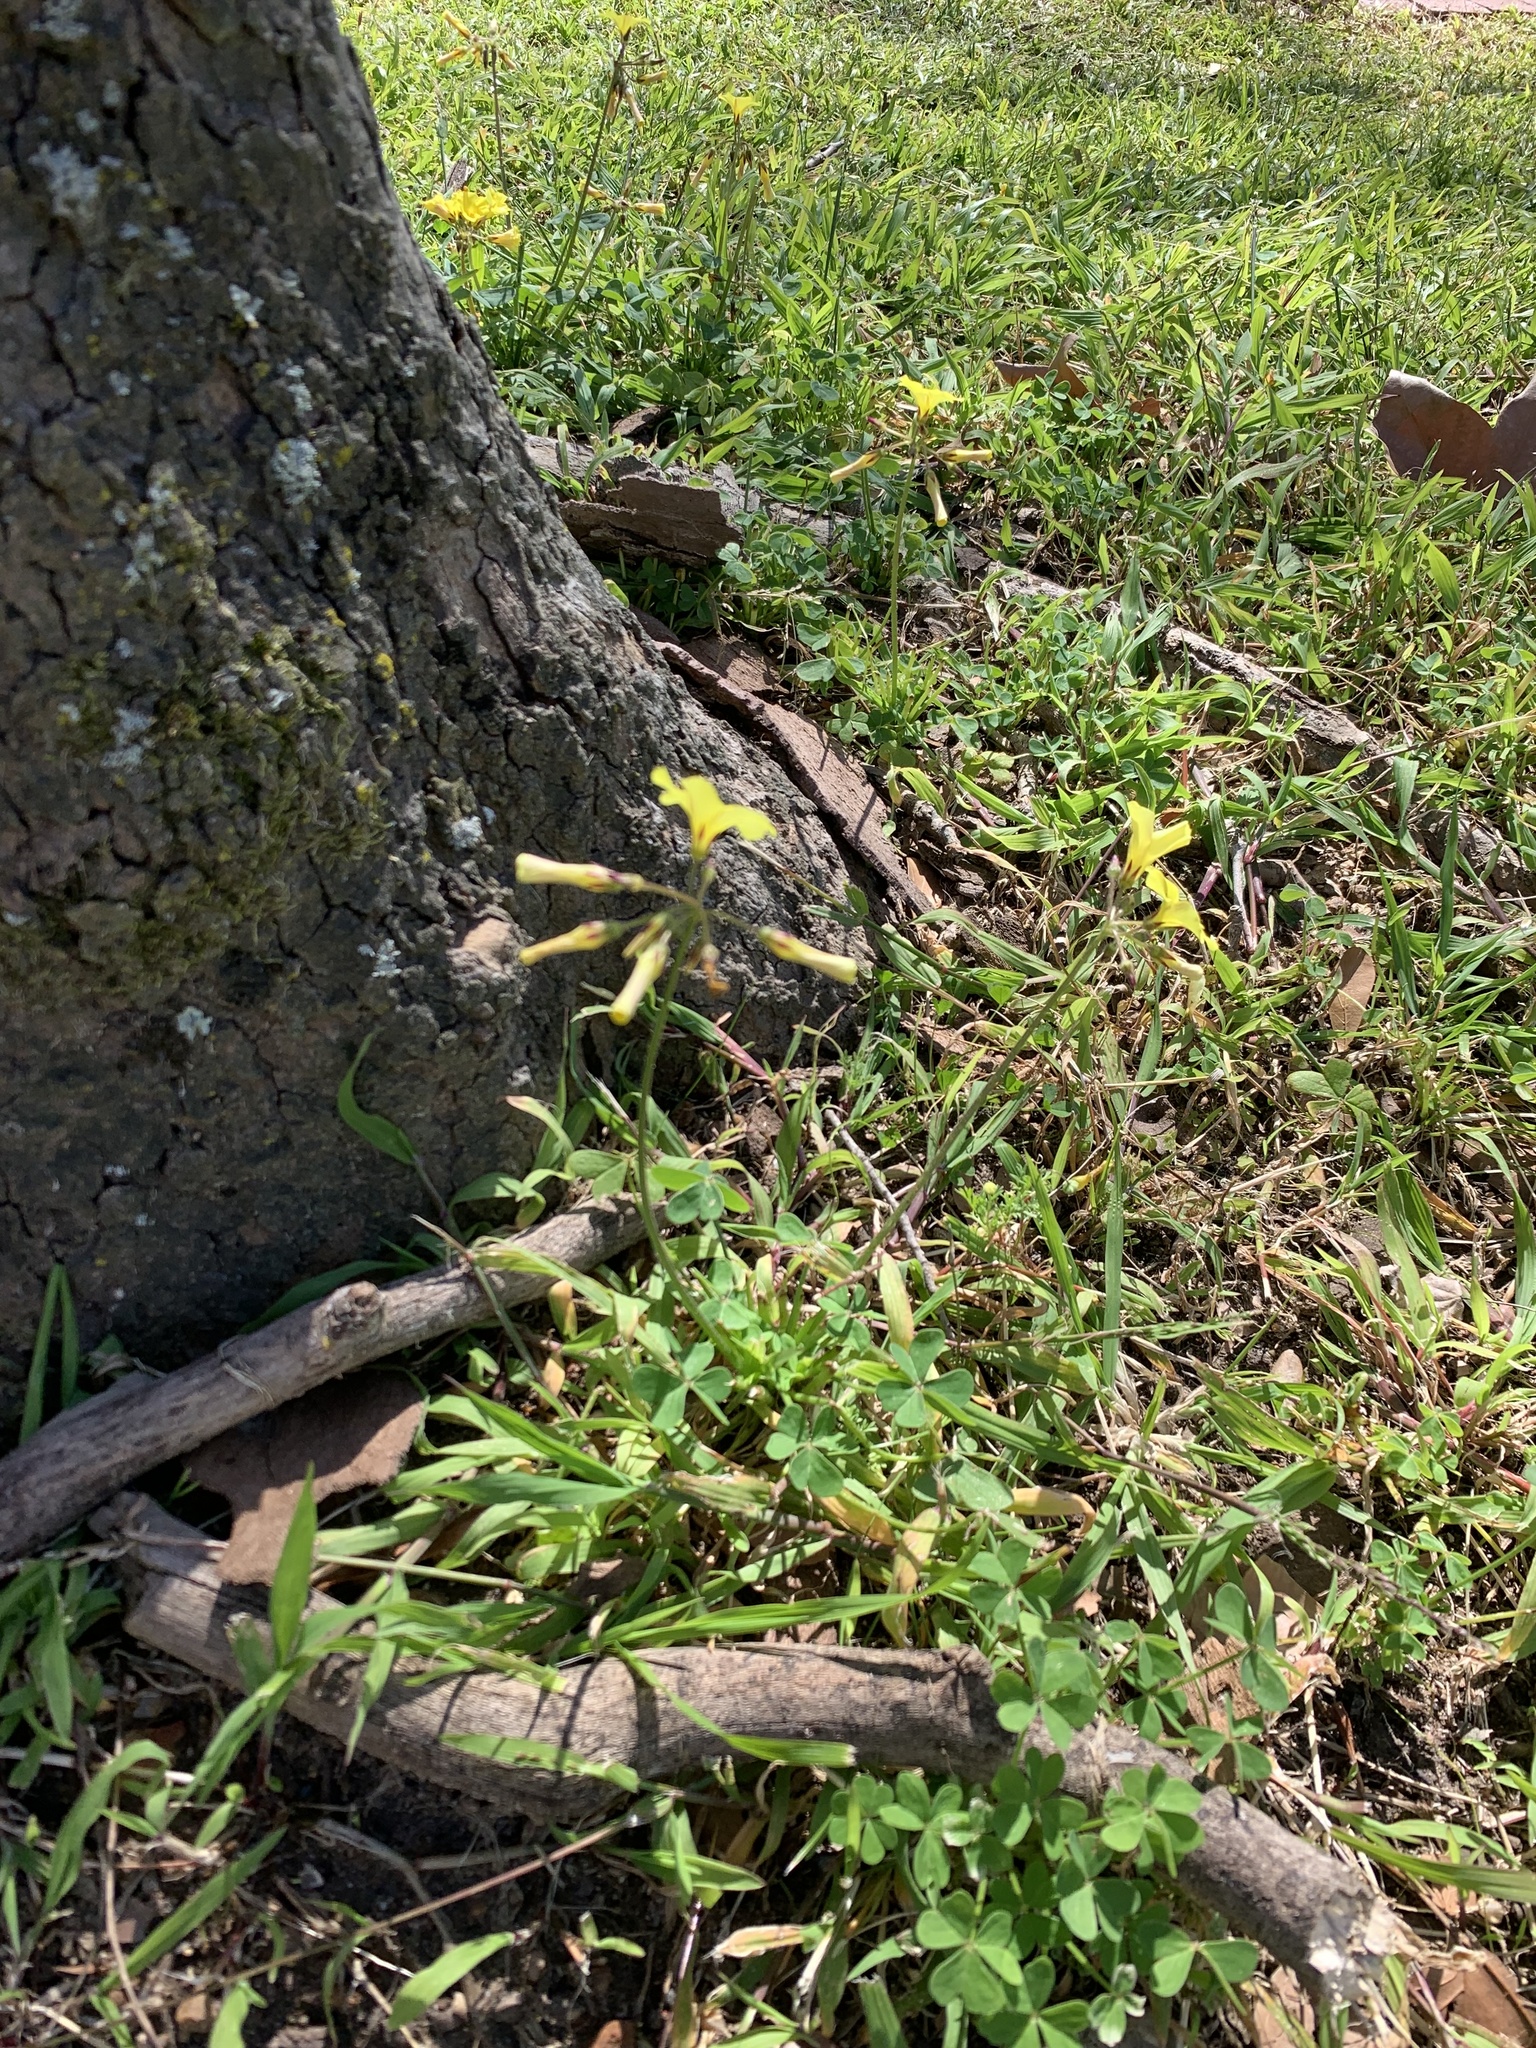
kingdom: Plantae
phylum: Tracheophyta
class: Magnoliopsida
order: Oxalidales
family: Oxalidaceae
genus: Oxalis
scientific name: Oxalis pes-caprae
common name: Bermuda-buttercup
